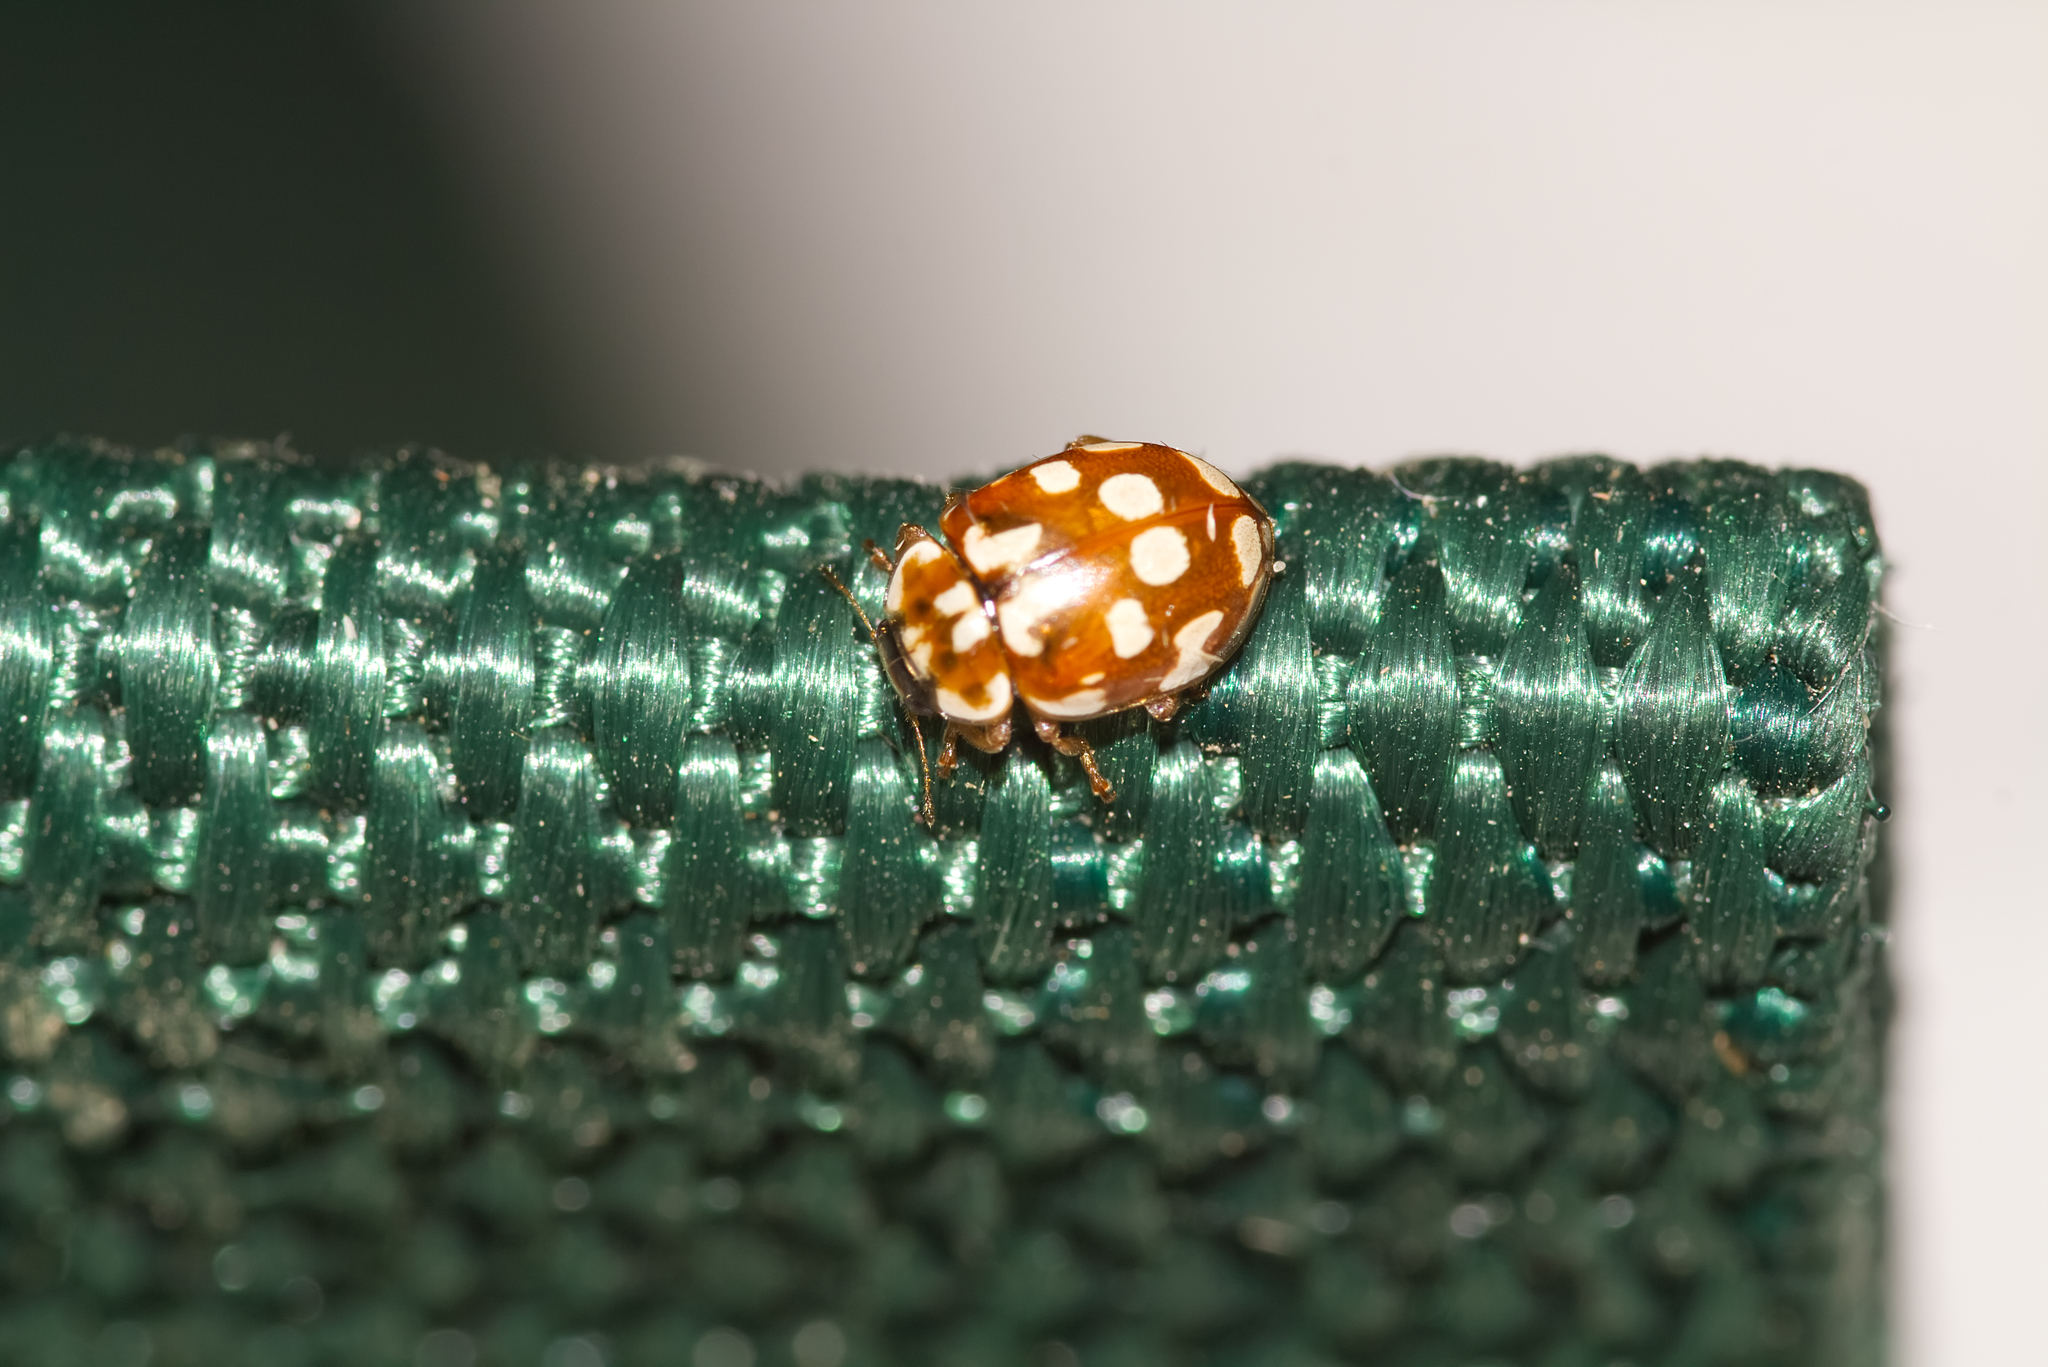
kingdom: Animalia
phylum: Arthropoda
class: Insecta
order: Coleoptera
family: Coccinellidae
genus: Myrrha
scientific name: Myrrha octodecimguttata
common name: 18-spot ladybird
